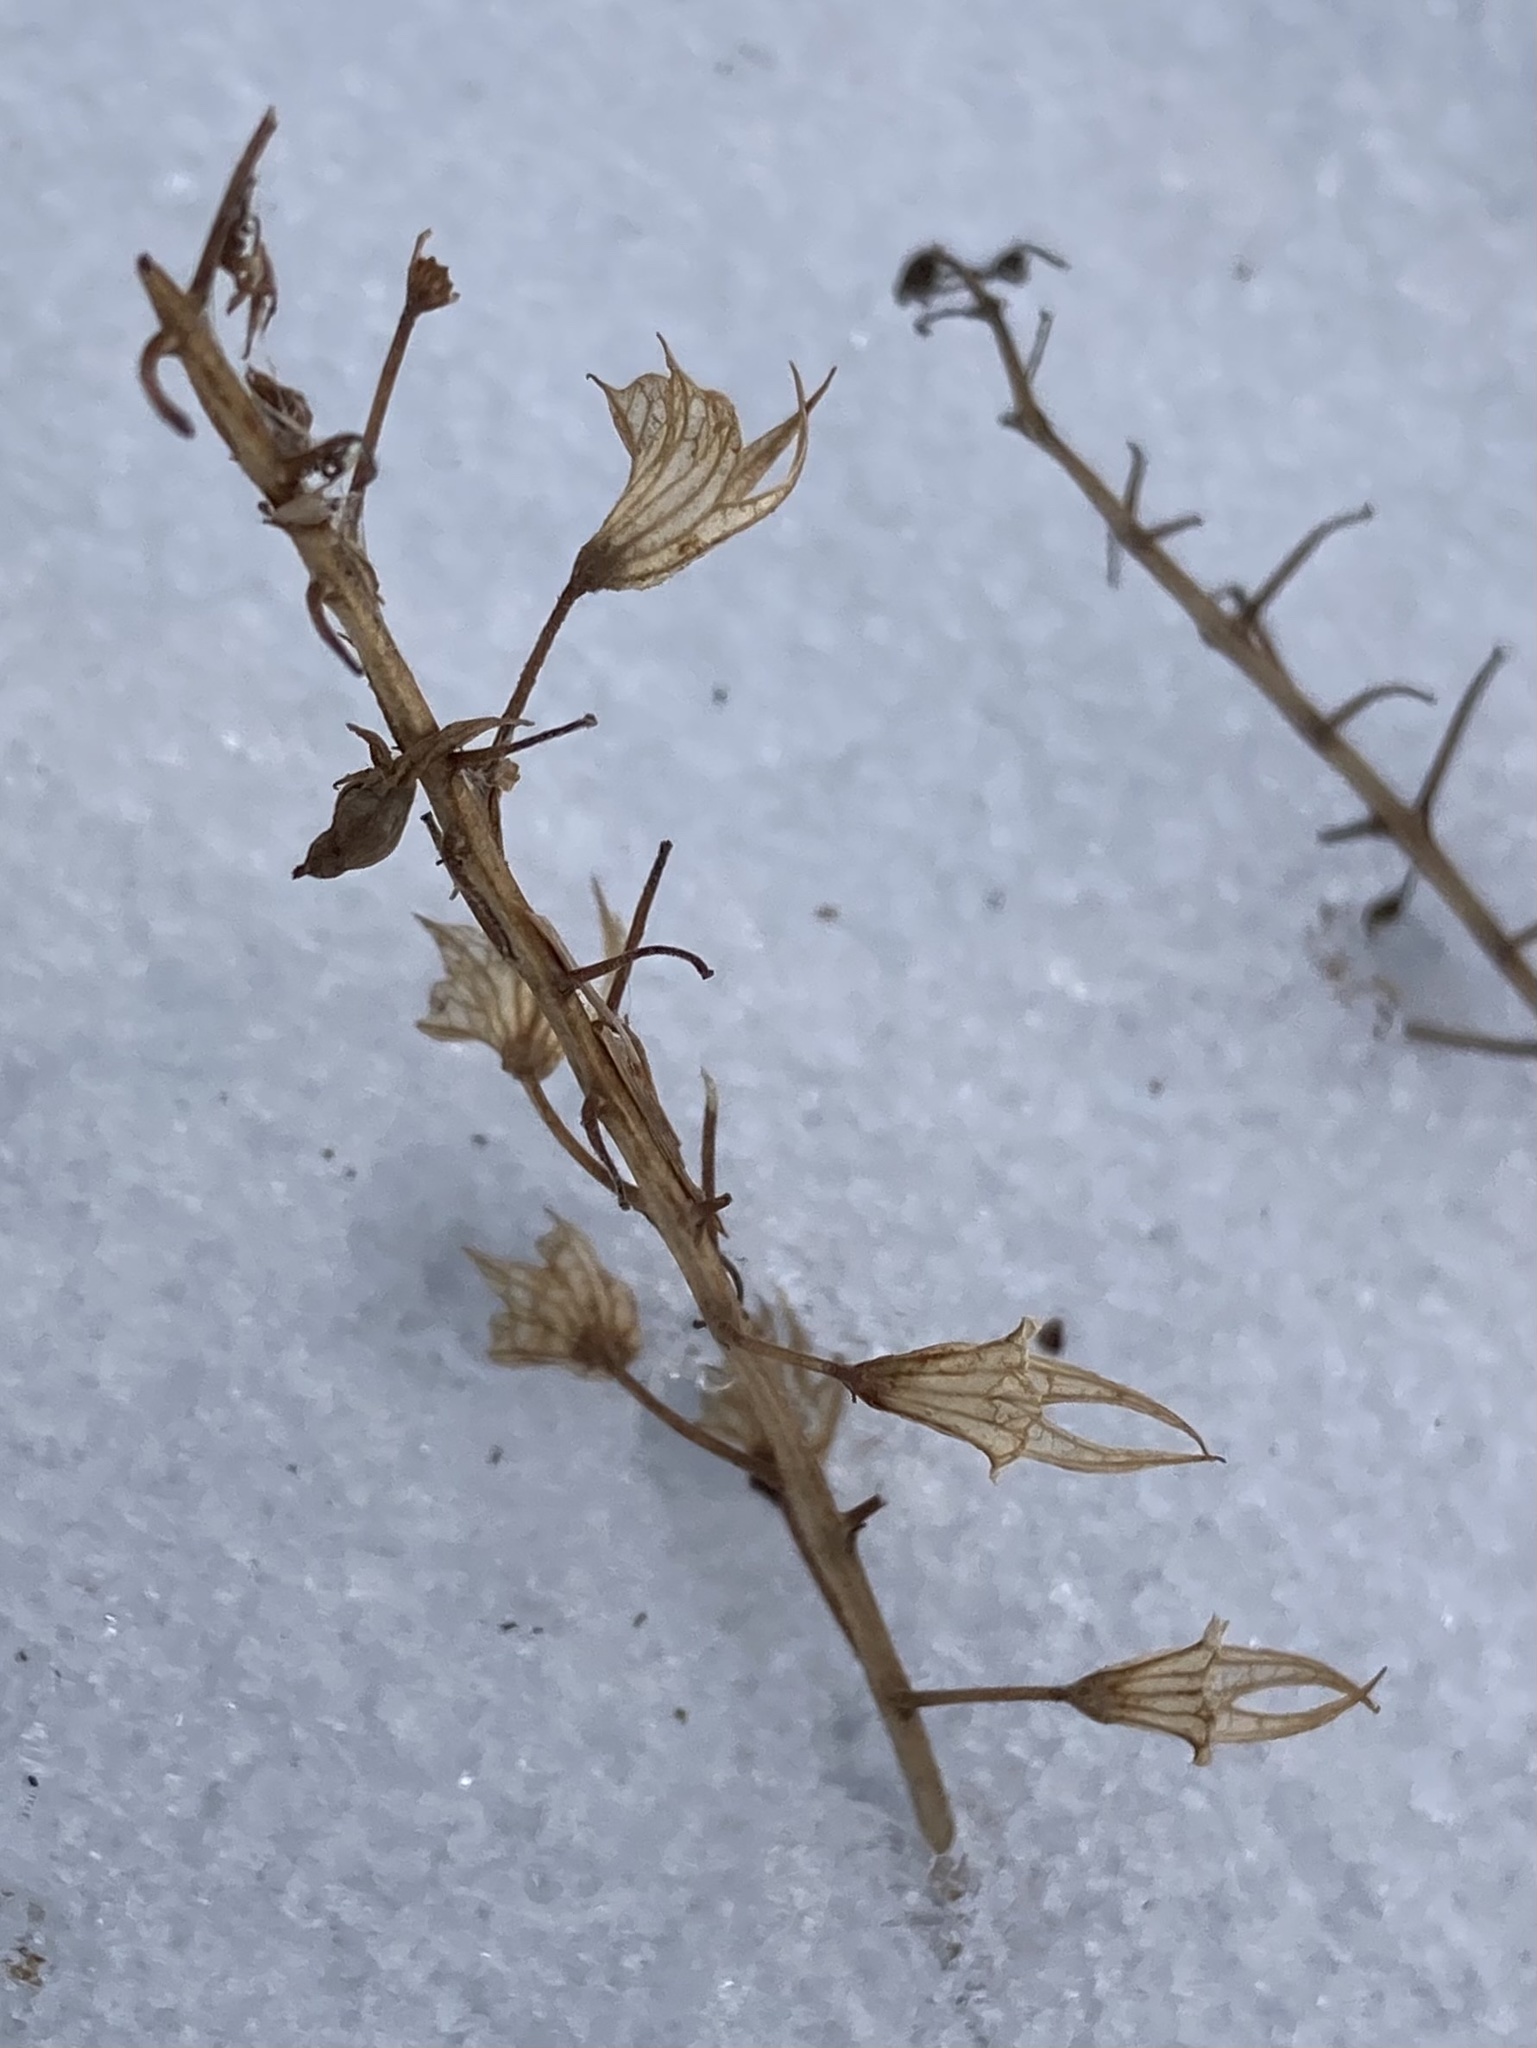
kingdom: Plantae
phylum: Tracheophyta
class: Magnoliopsida
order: Lamiales
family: Lamiaceae
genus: Collinsonia
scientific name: Collinsonia canadensis
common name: Northern horsebalm
